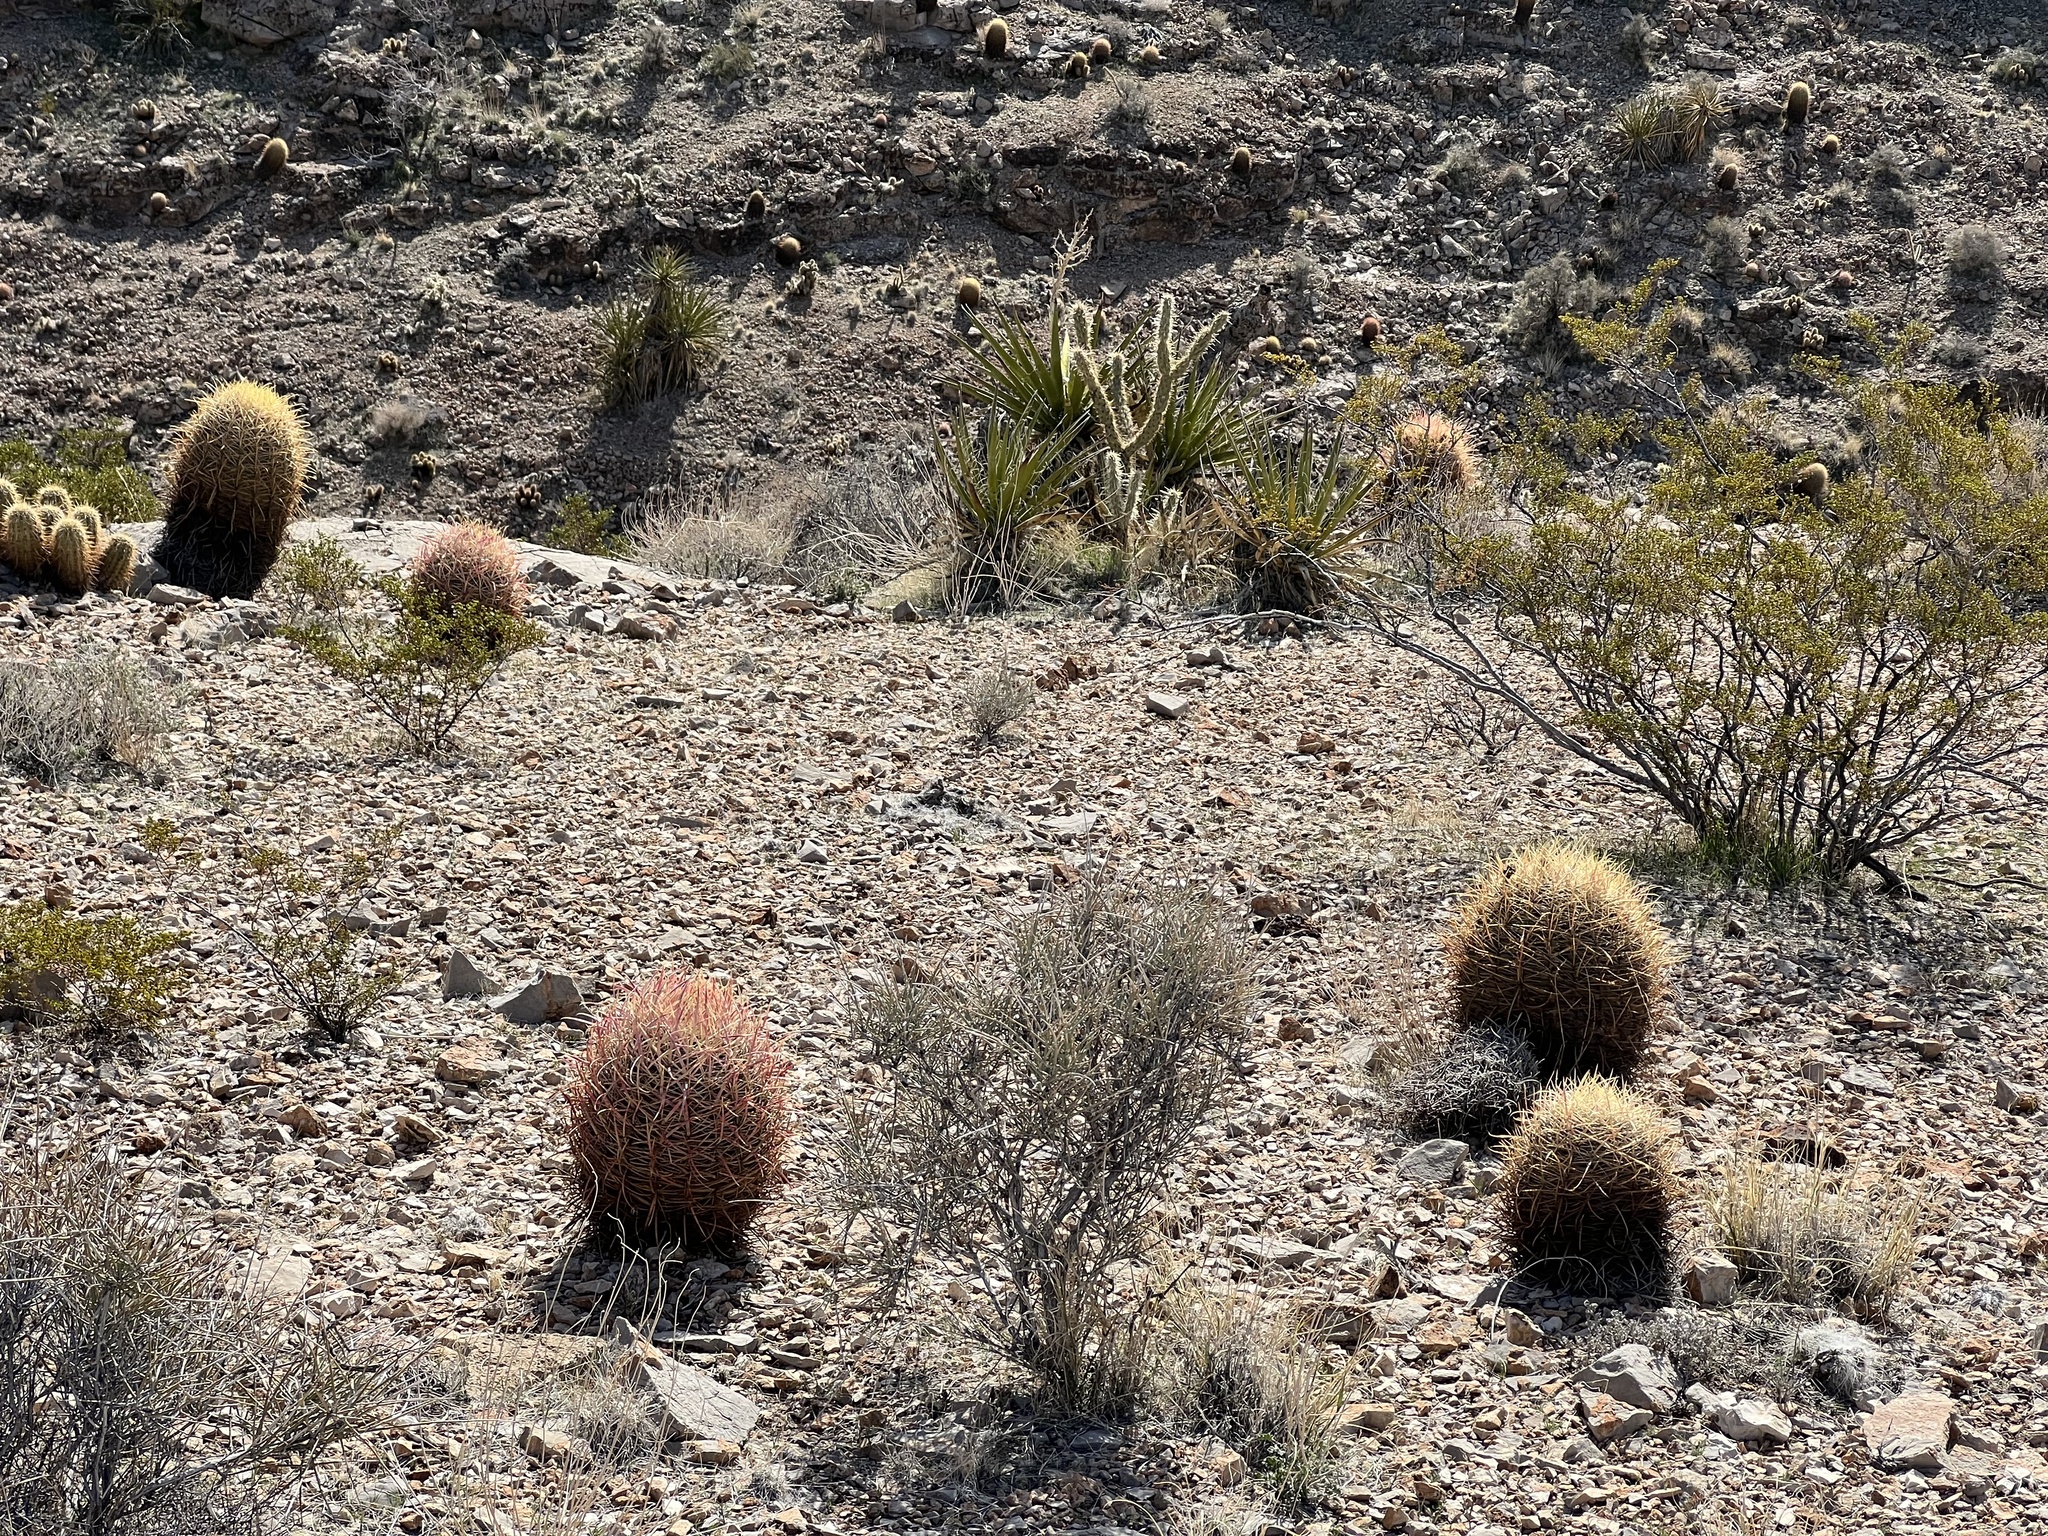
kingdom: Plantae
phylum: Tracheophyta
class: Magnoliopsida
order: Caryophyllales
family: Cactaceae
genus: Ferocactus
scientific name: Ferocactus cylindraceus
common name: California barrel cactus
